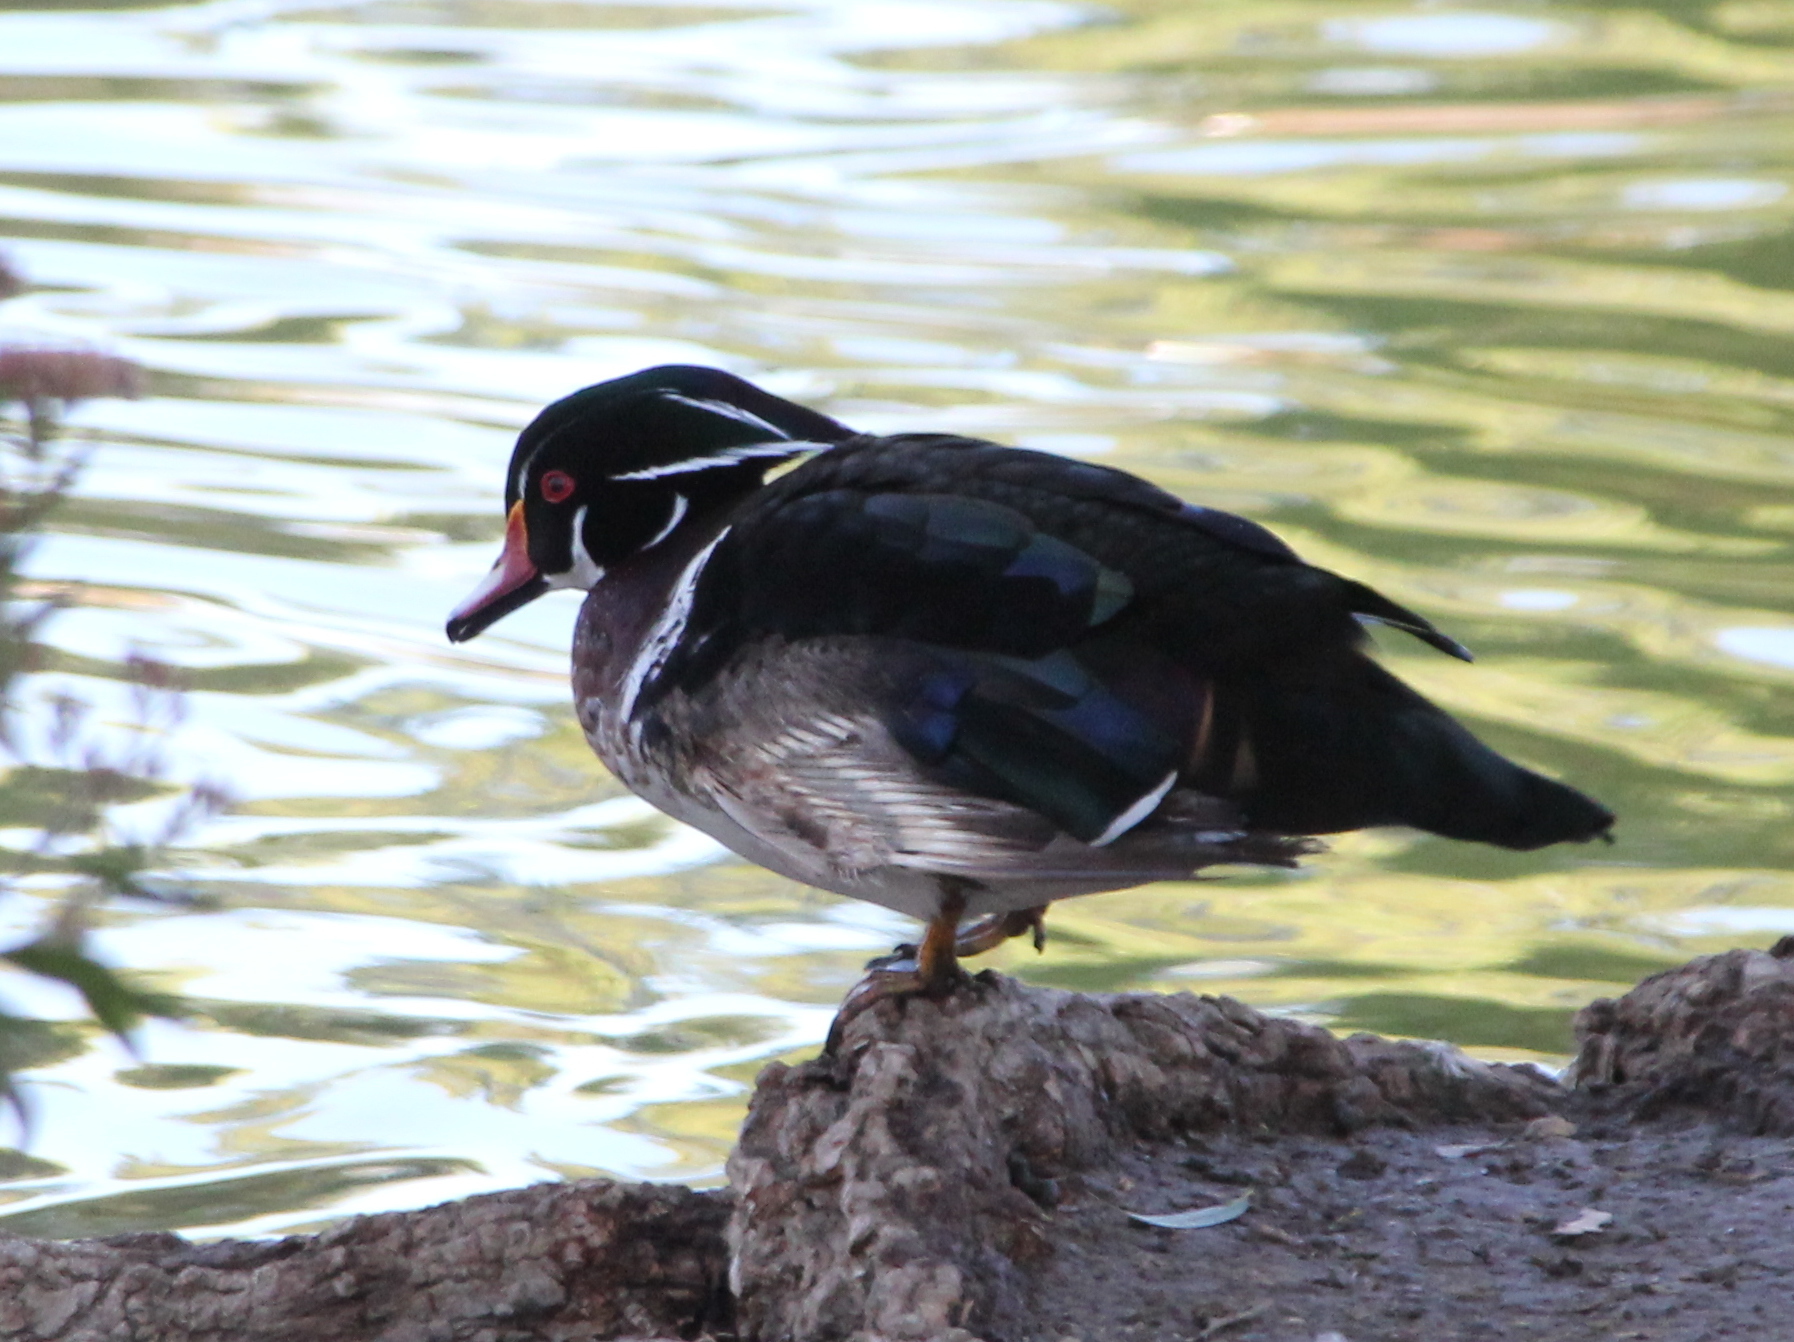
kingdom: Animalia
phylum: Chordata
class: Aves
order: Anseriformes
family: Anatidae
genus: Aix
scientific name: Aix sponsa
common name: Wood duck
